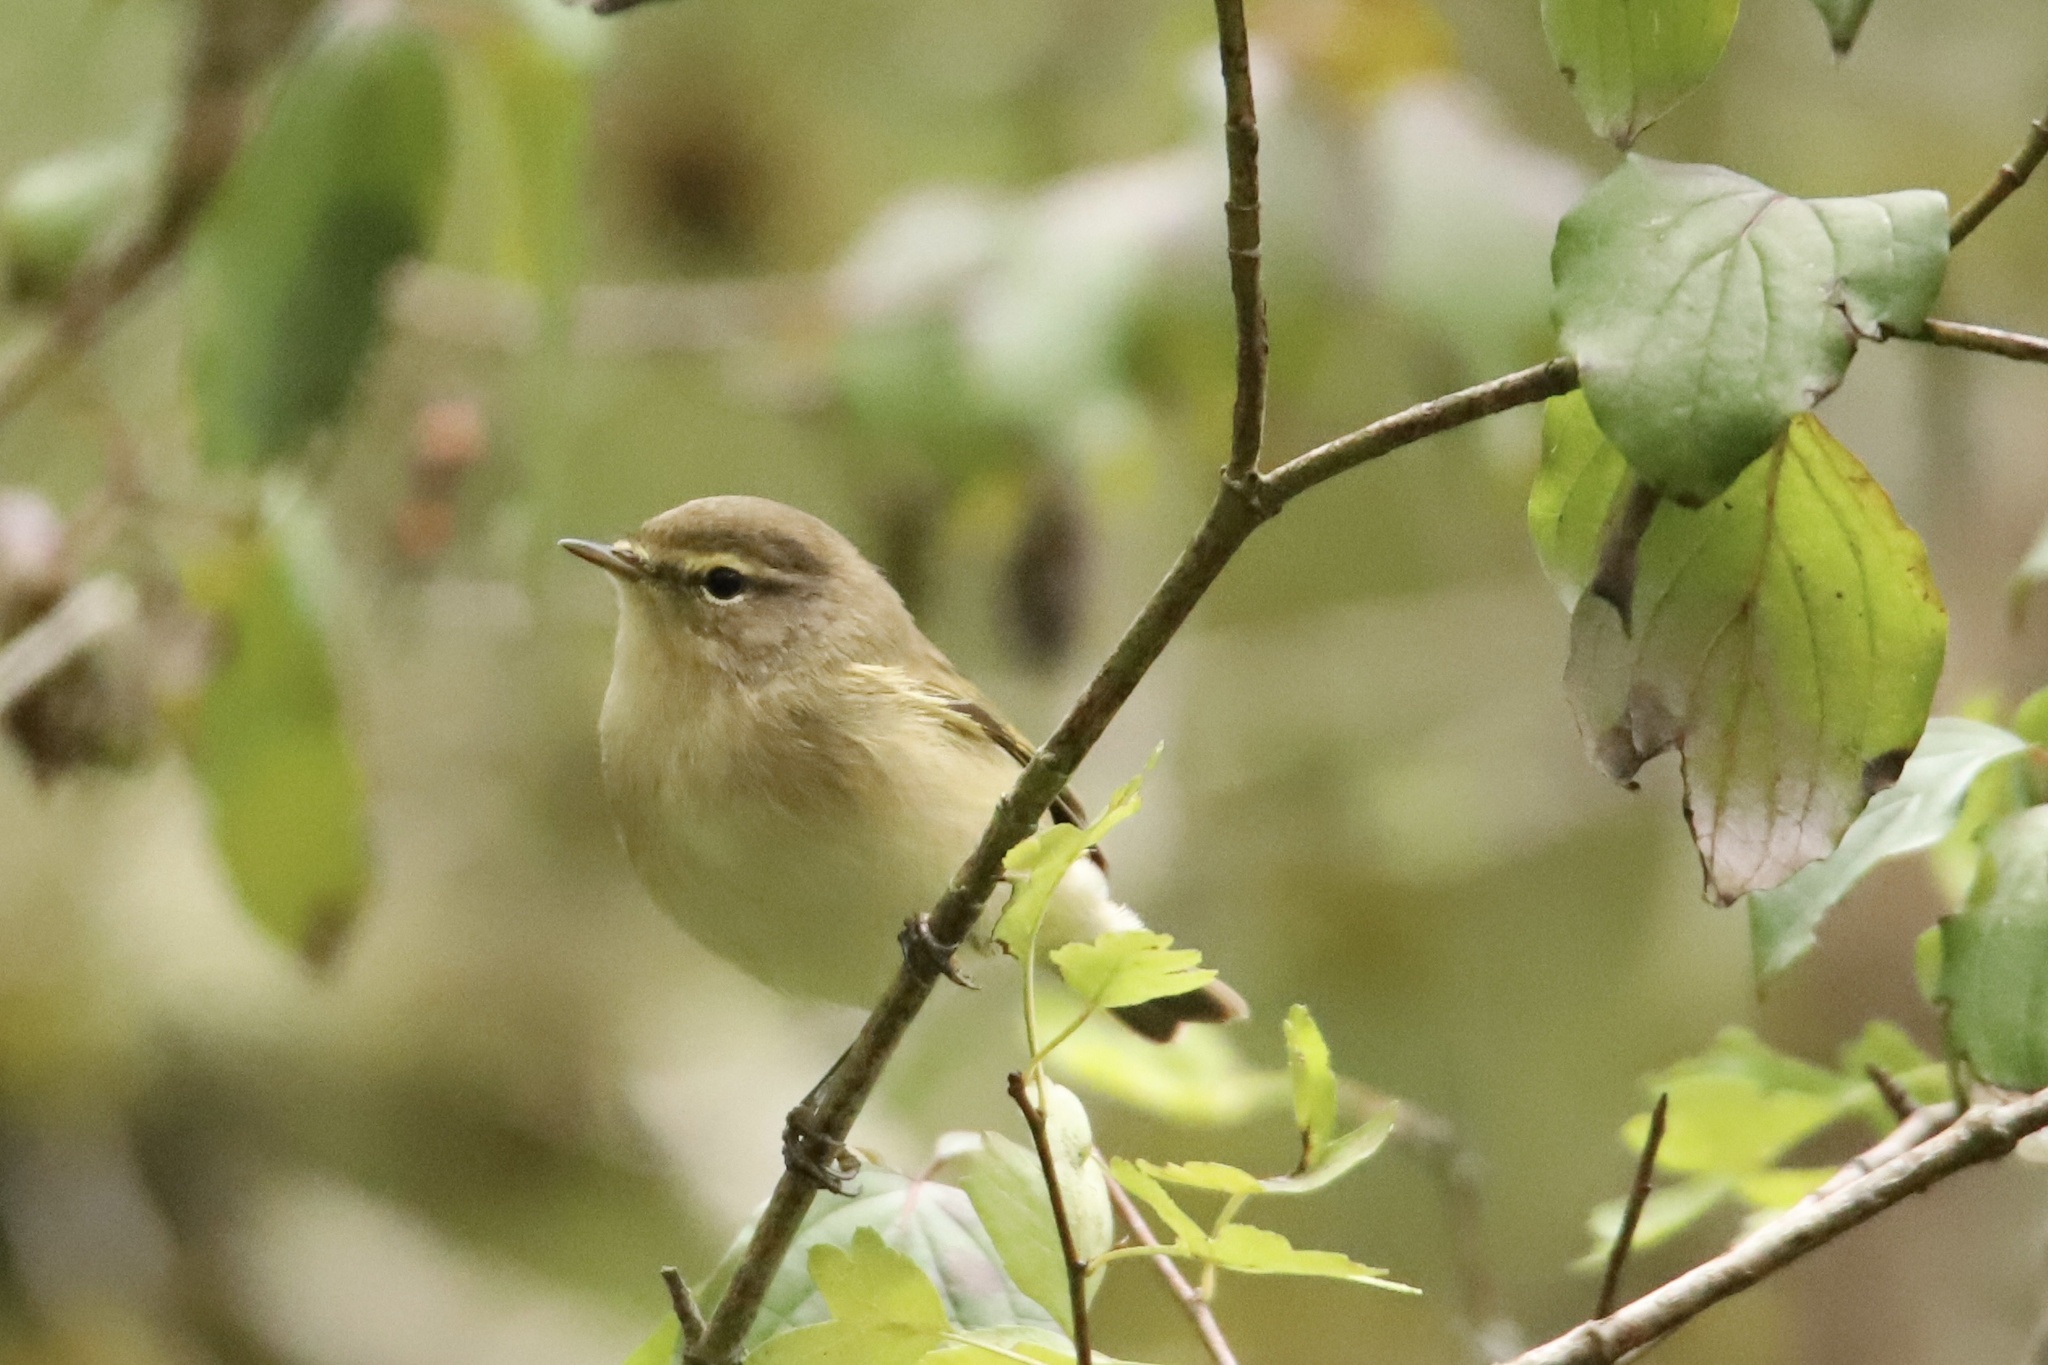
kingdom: Animalia
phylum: Chordata
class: Aves
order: Passeriformes
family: Phylloscopidae
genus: Phylloscopus
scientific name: Phylloscopus collybita
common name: Common chiffchaff
